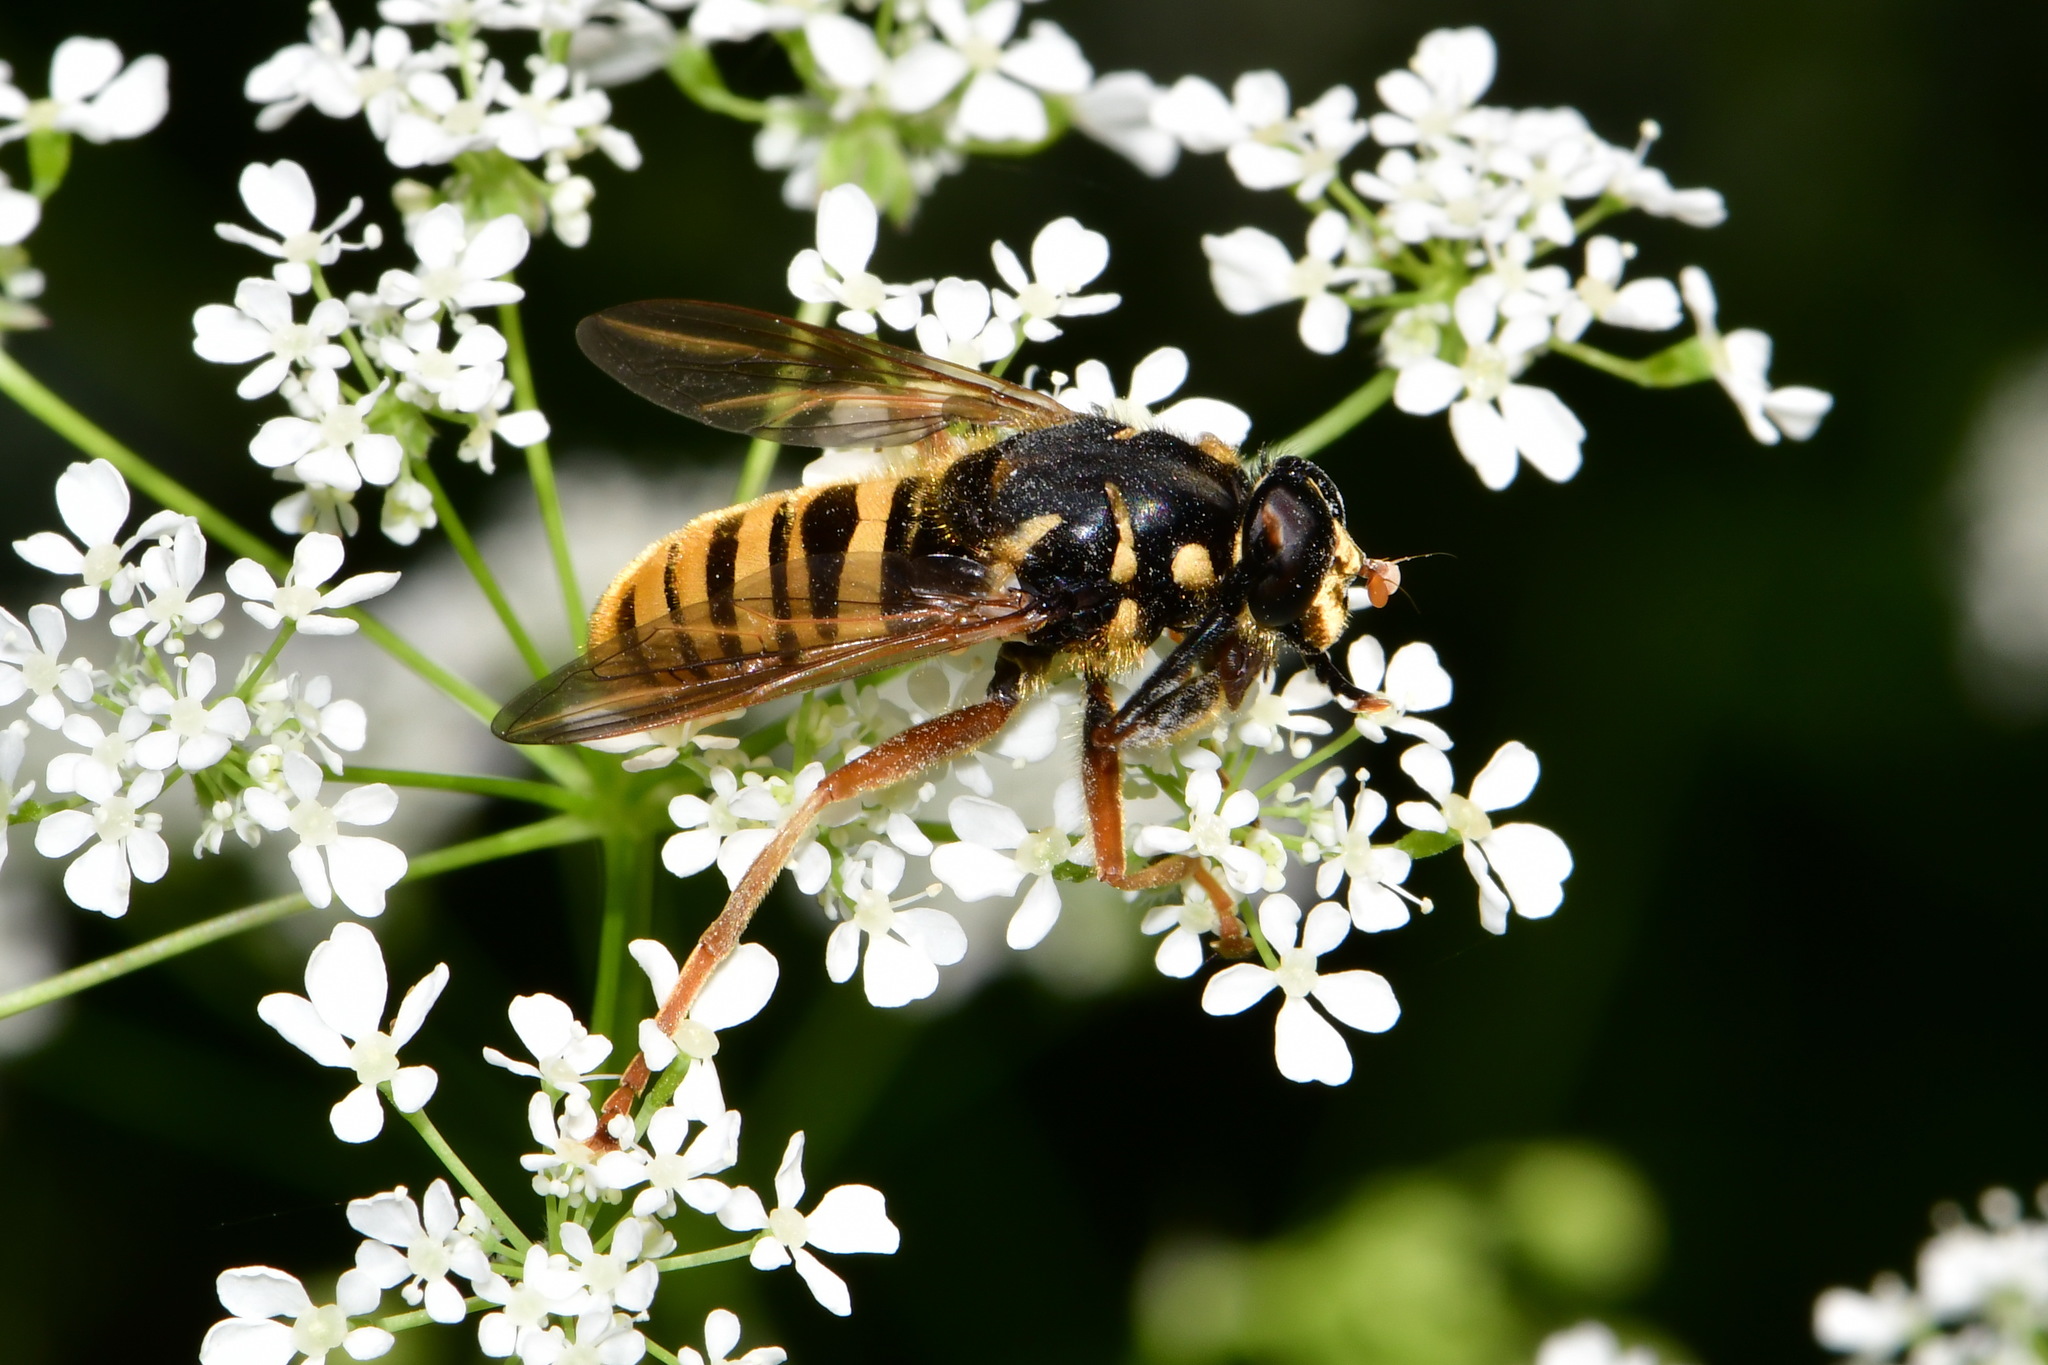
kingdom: Animalia
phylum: Arthropoda
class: Insecta
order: Diptera
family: Syrphidae
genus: Temnostoma
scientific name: Temnostoma vespiforme
